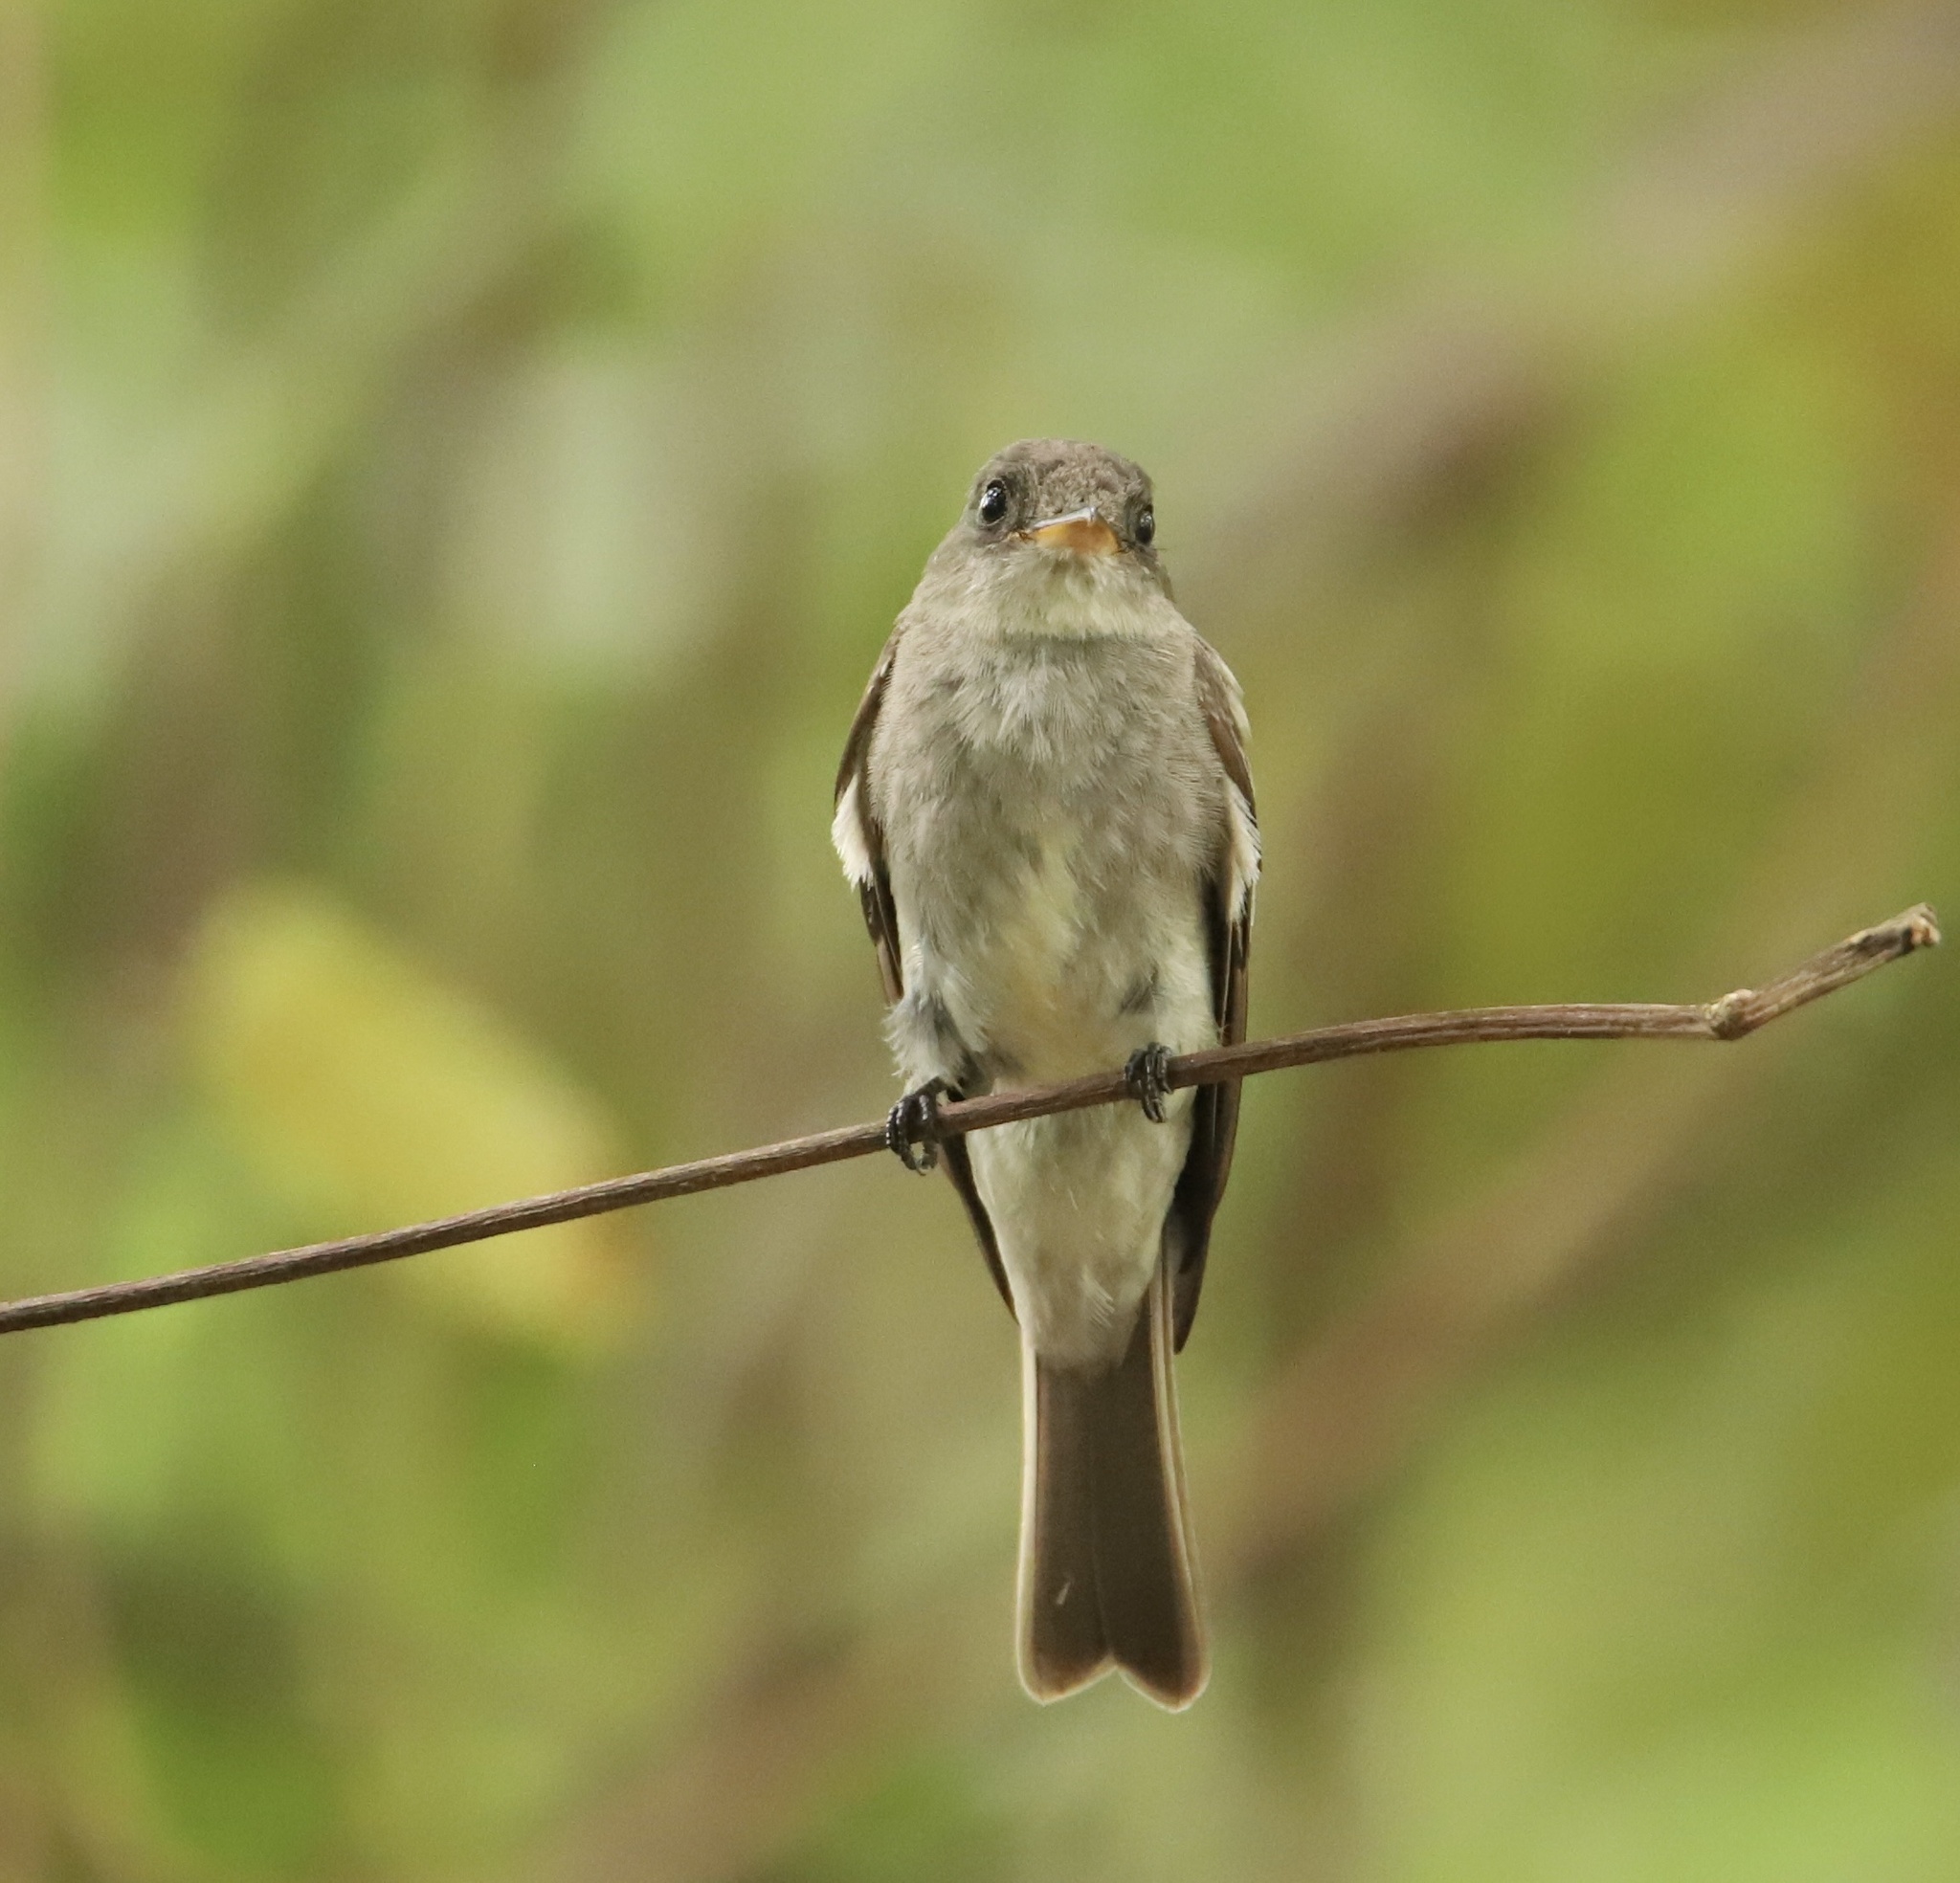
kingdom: Animalia
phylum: Chordata
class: Aves
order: Passeriformes
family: Tyrannidae
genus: Contopus
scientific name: Contopus virens
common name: Eastern wood-pewee
